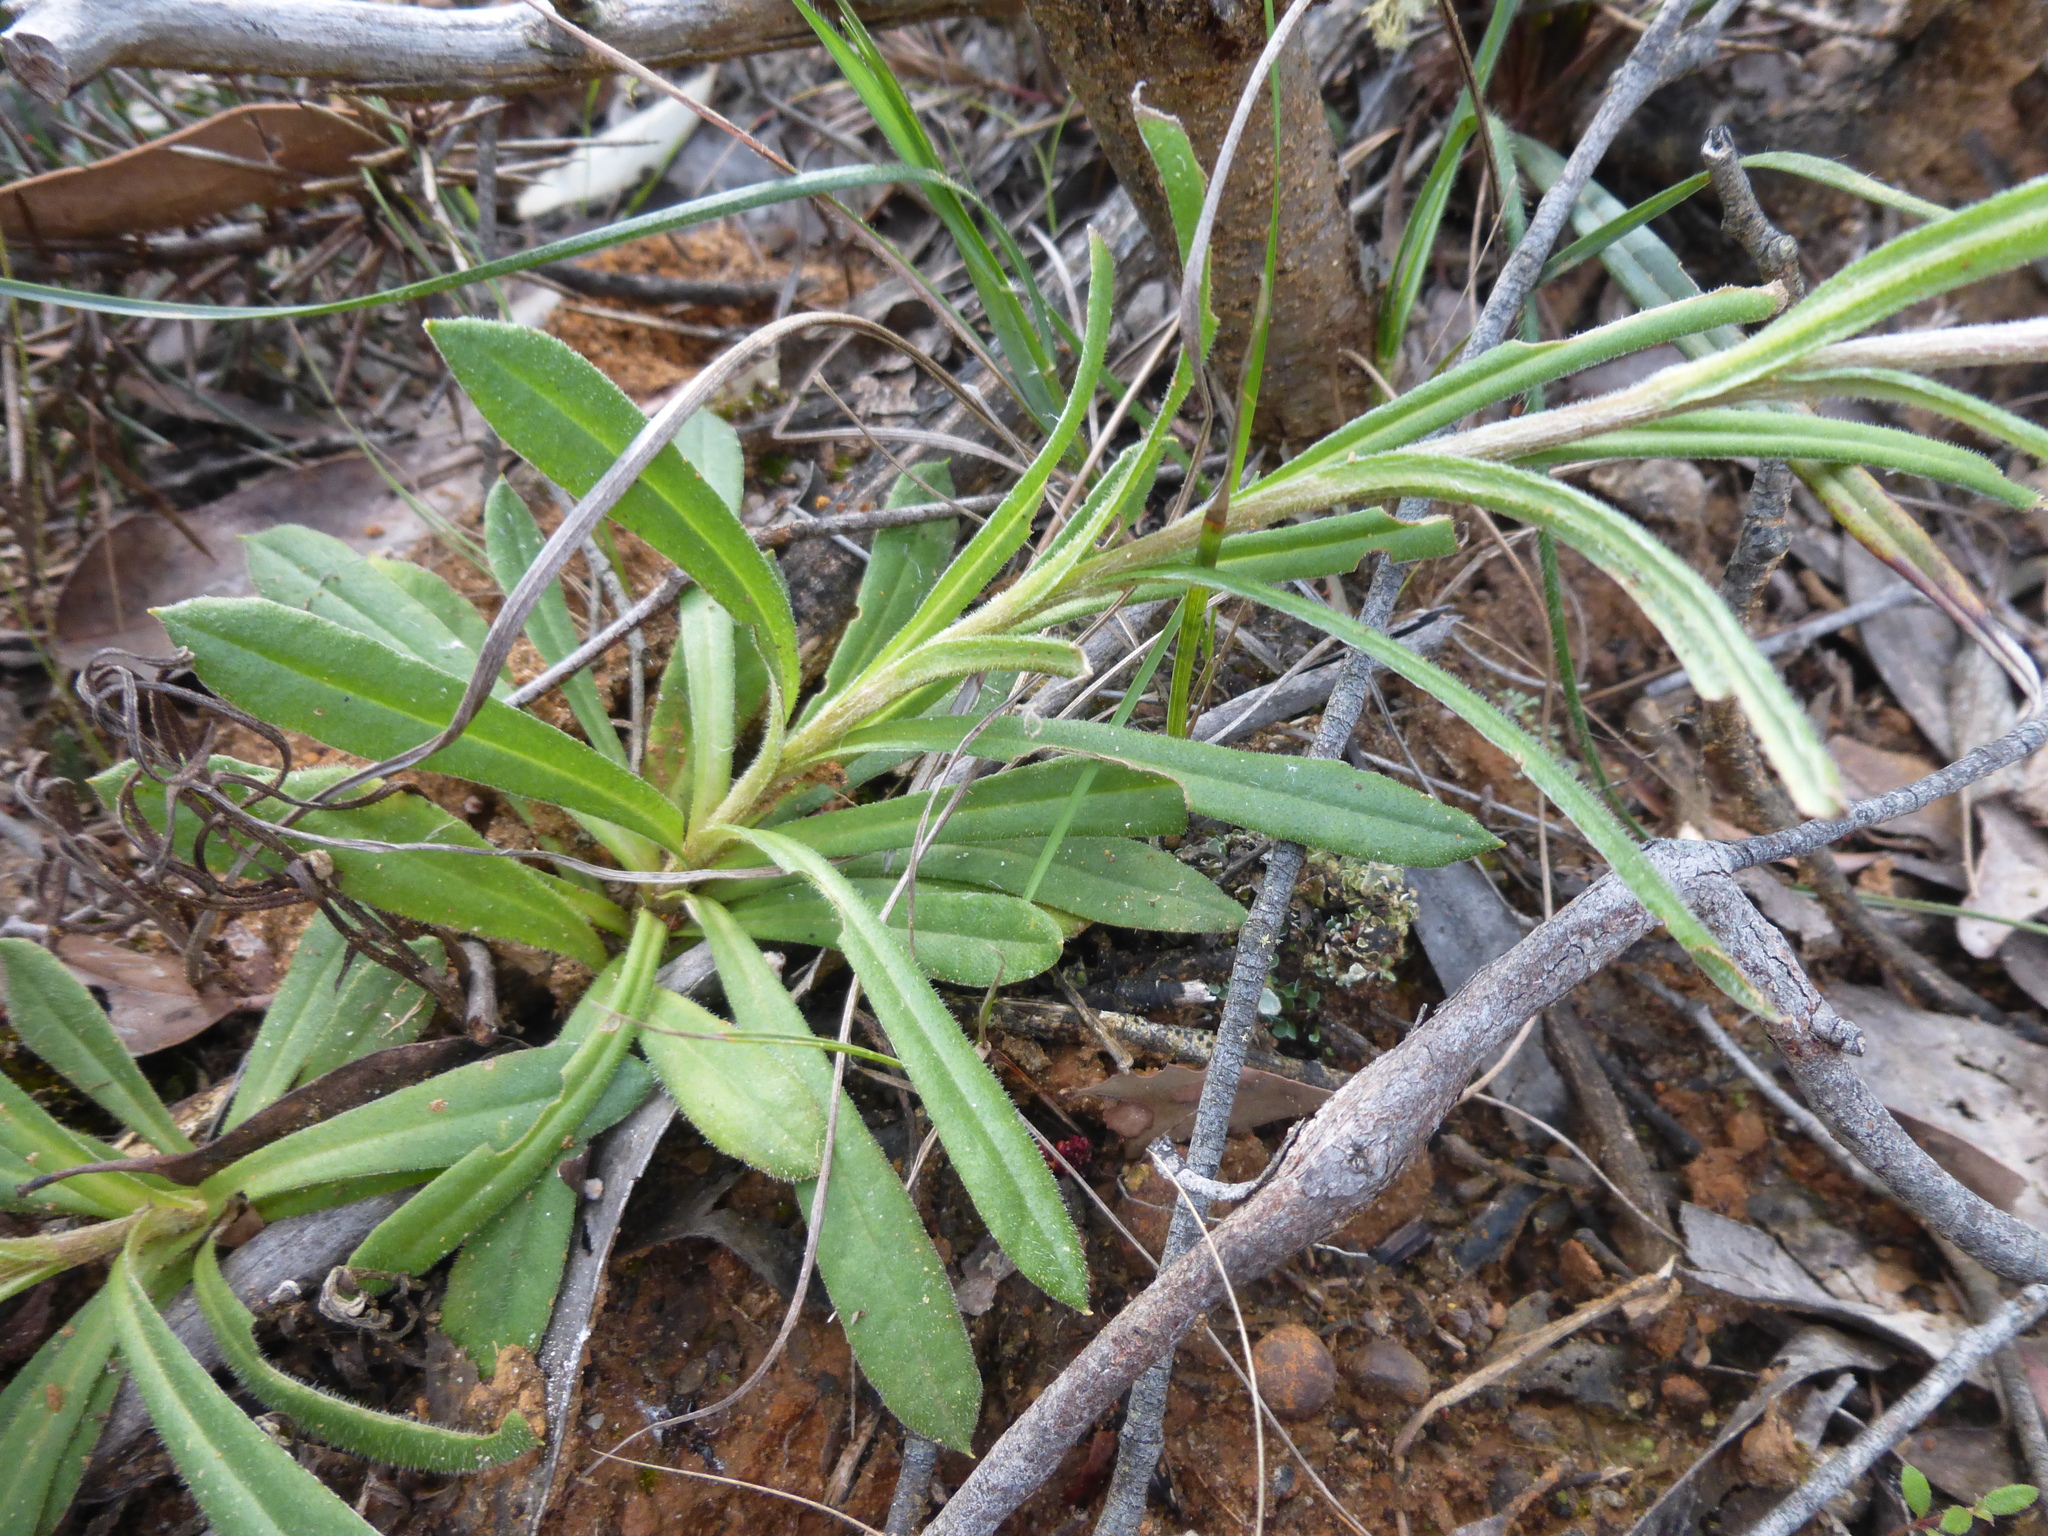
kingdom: Plantae
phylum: Tracheophyta
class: Magnoliopsida
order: Asterales
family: Asteraceae
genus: Coronidium
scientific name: Coronidium scorpioides
